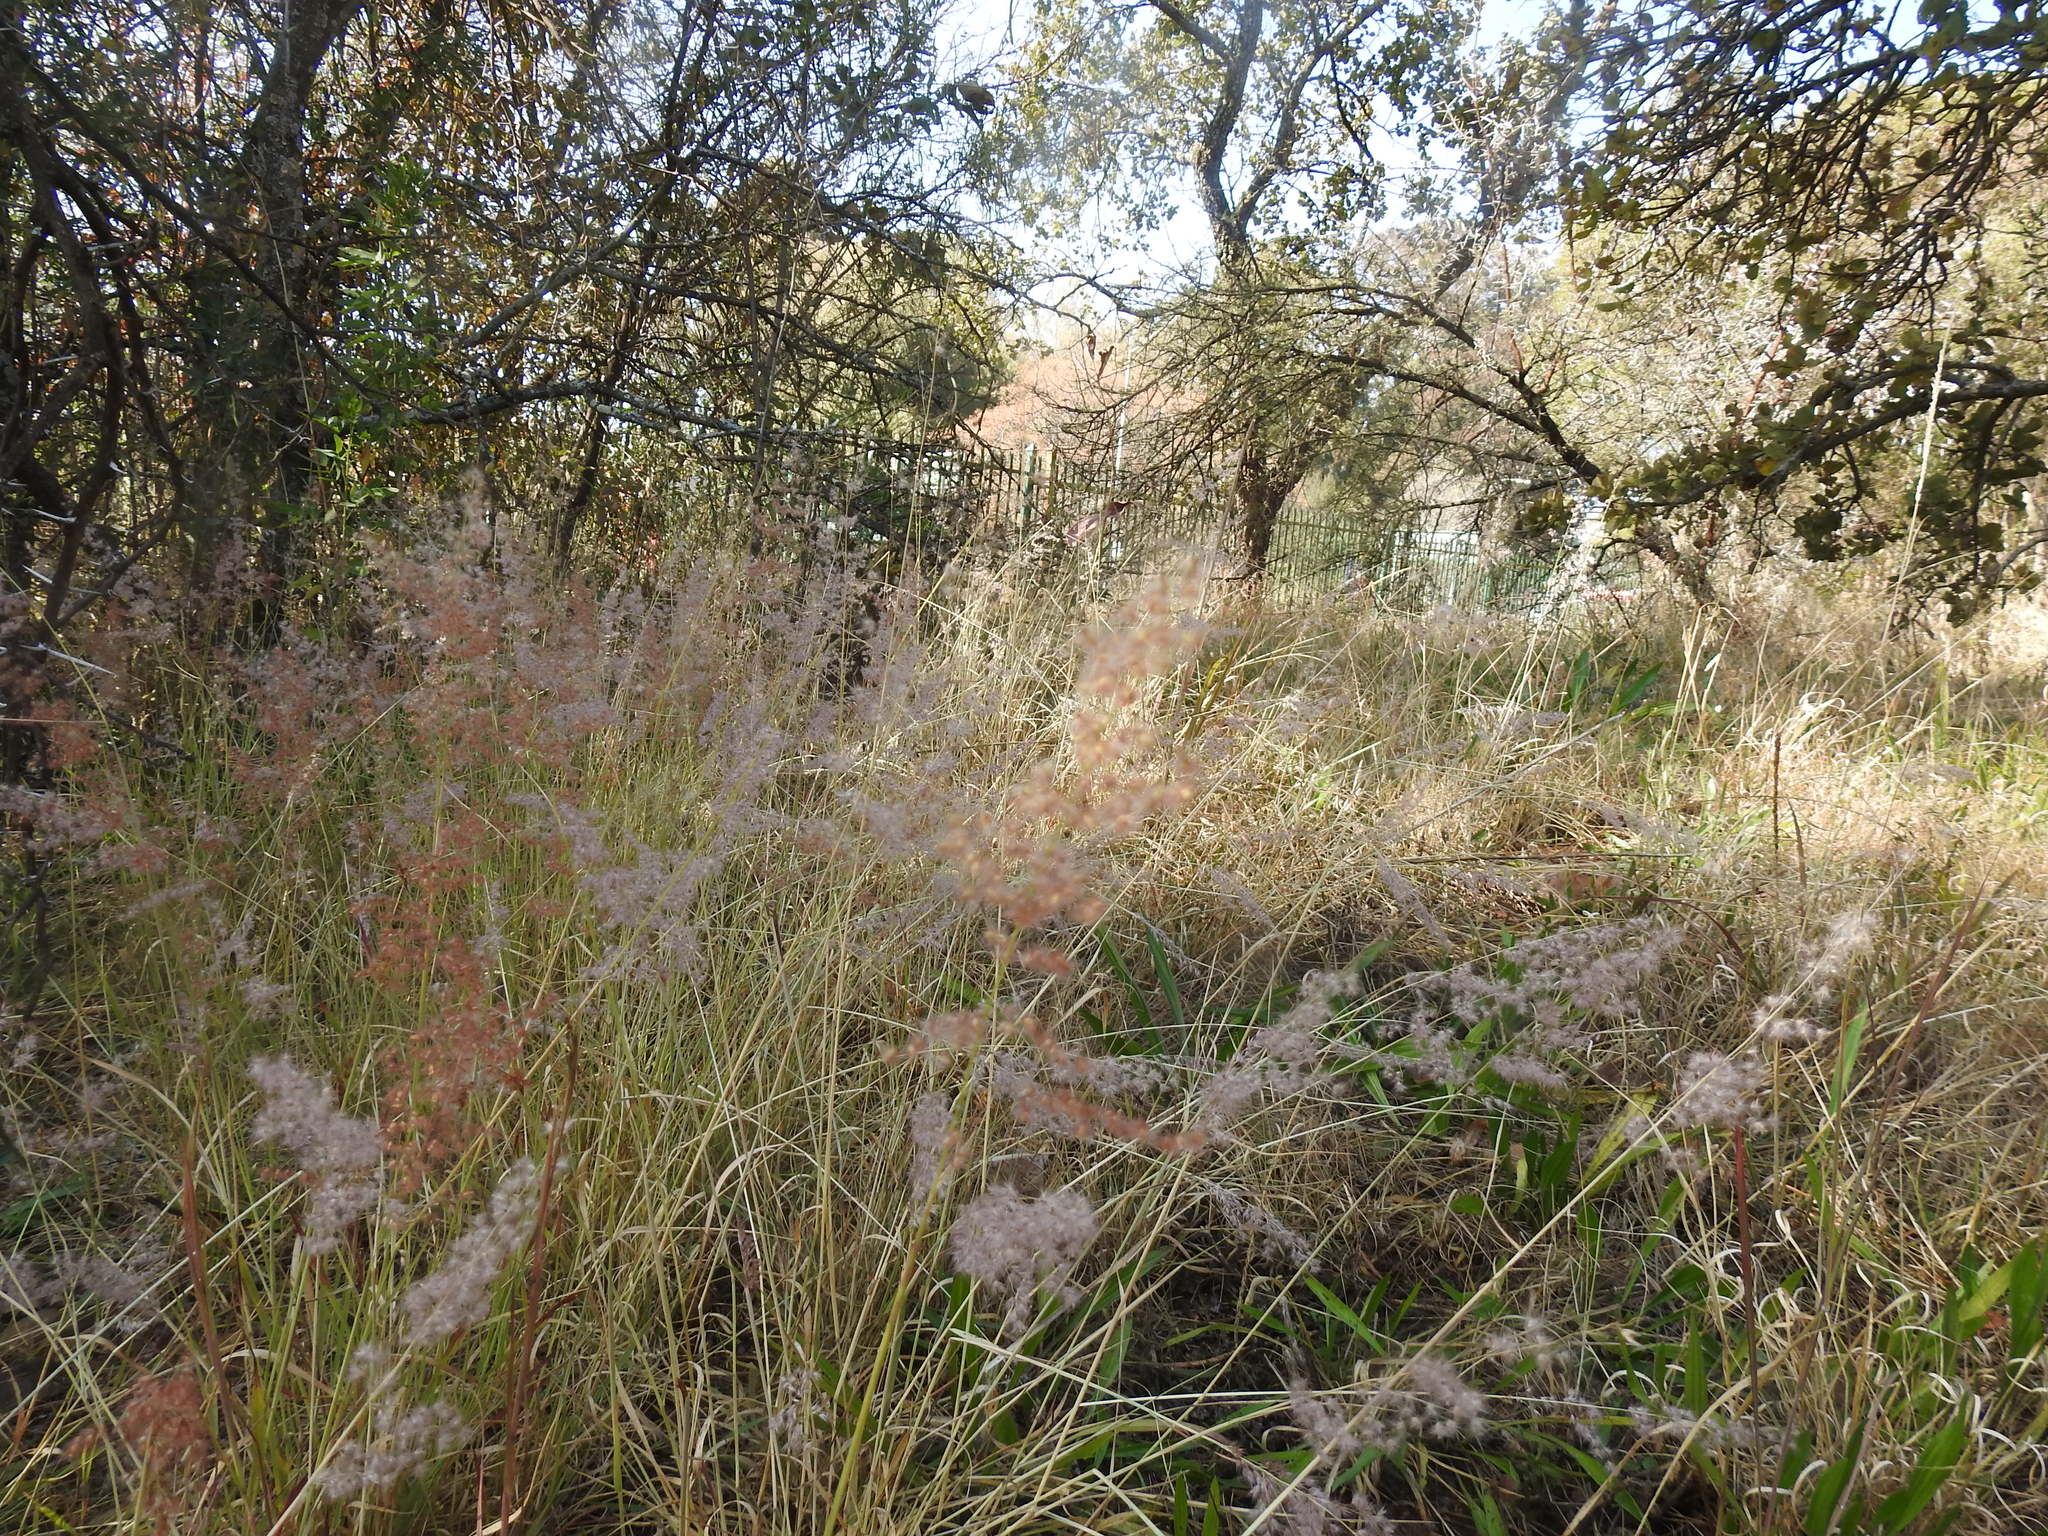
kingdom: Plantae
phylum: Tracheophyta
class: Liliopsida
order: Poales
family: Poaceae
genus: Melinis
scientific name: Melinis repens
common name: Rose natal grass
